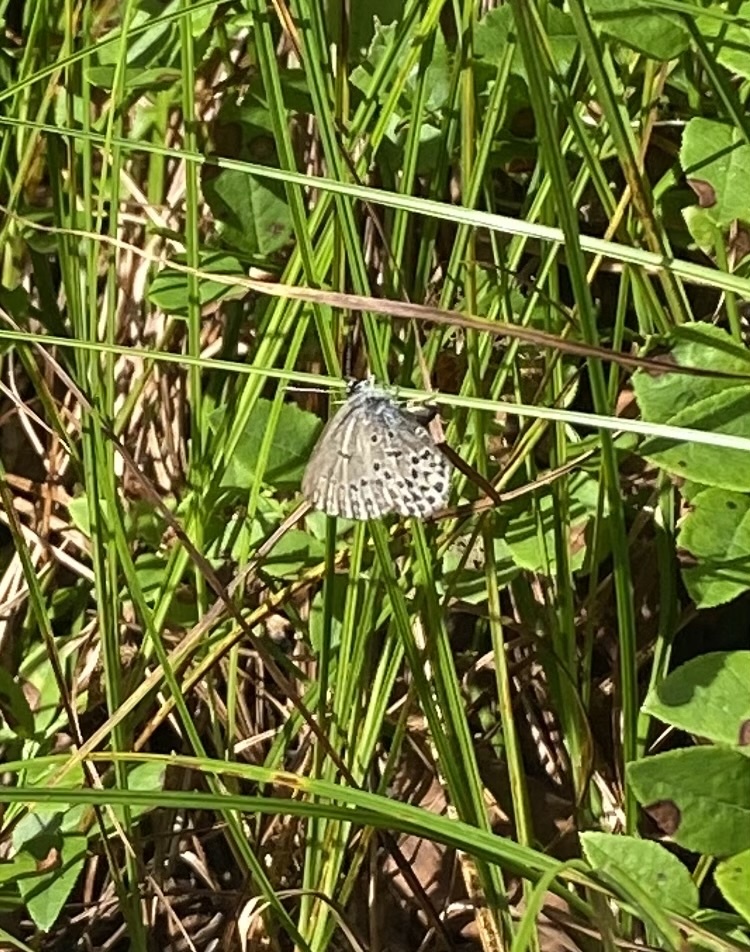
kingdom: Animalia
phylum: Arthropoda
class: Insecta
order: Lepidoptera
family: Lycaenidae
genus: Vacciniina
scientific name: Vacciniina optilete
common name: Cranberry blue
